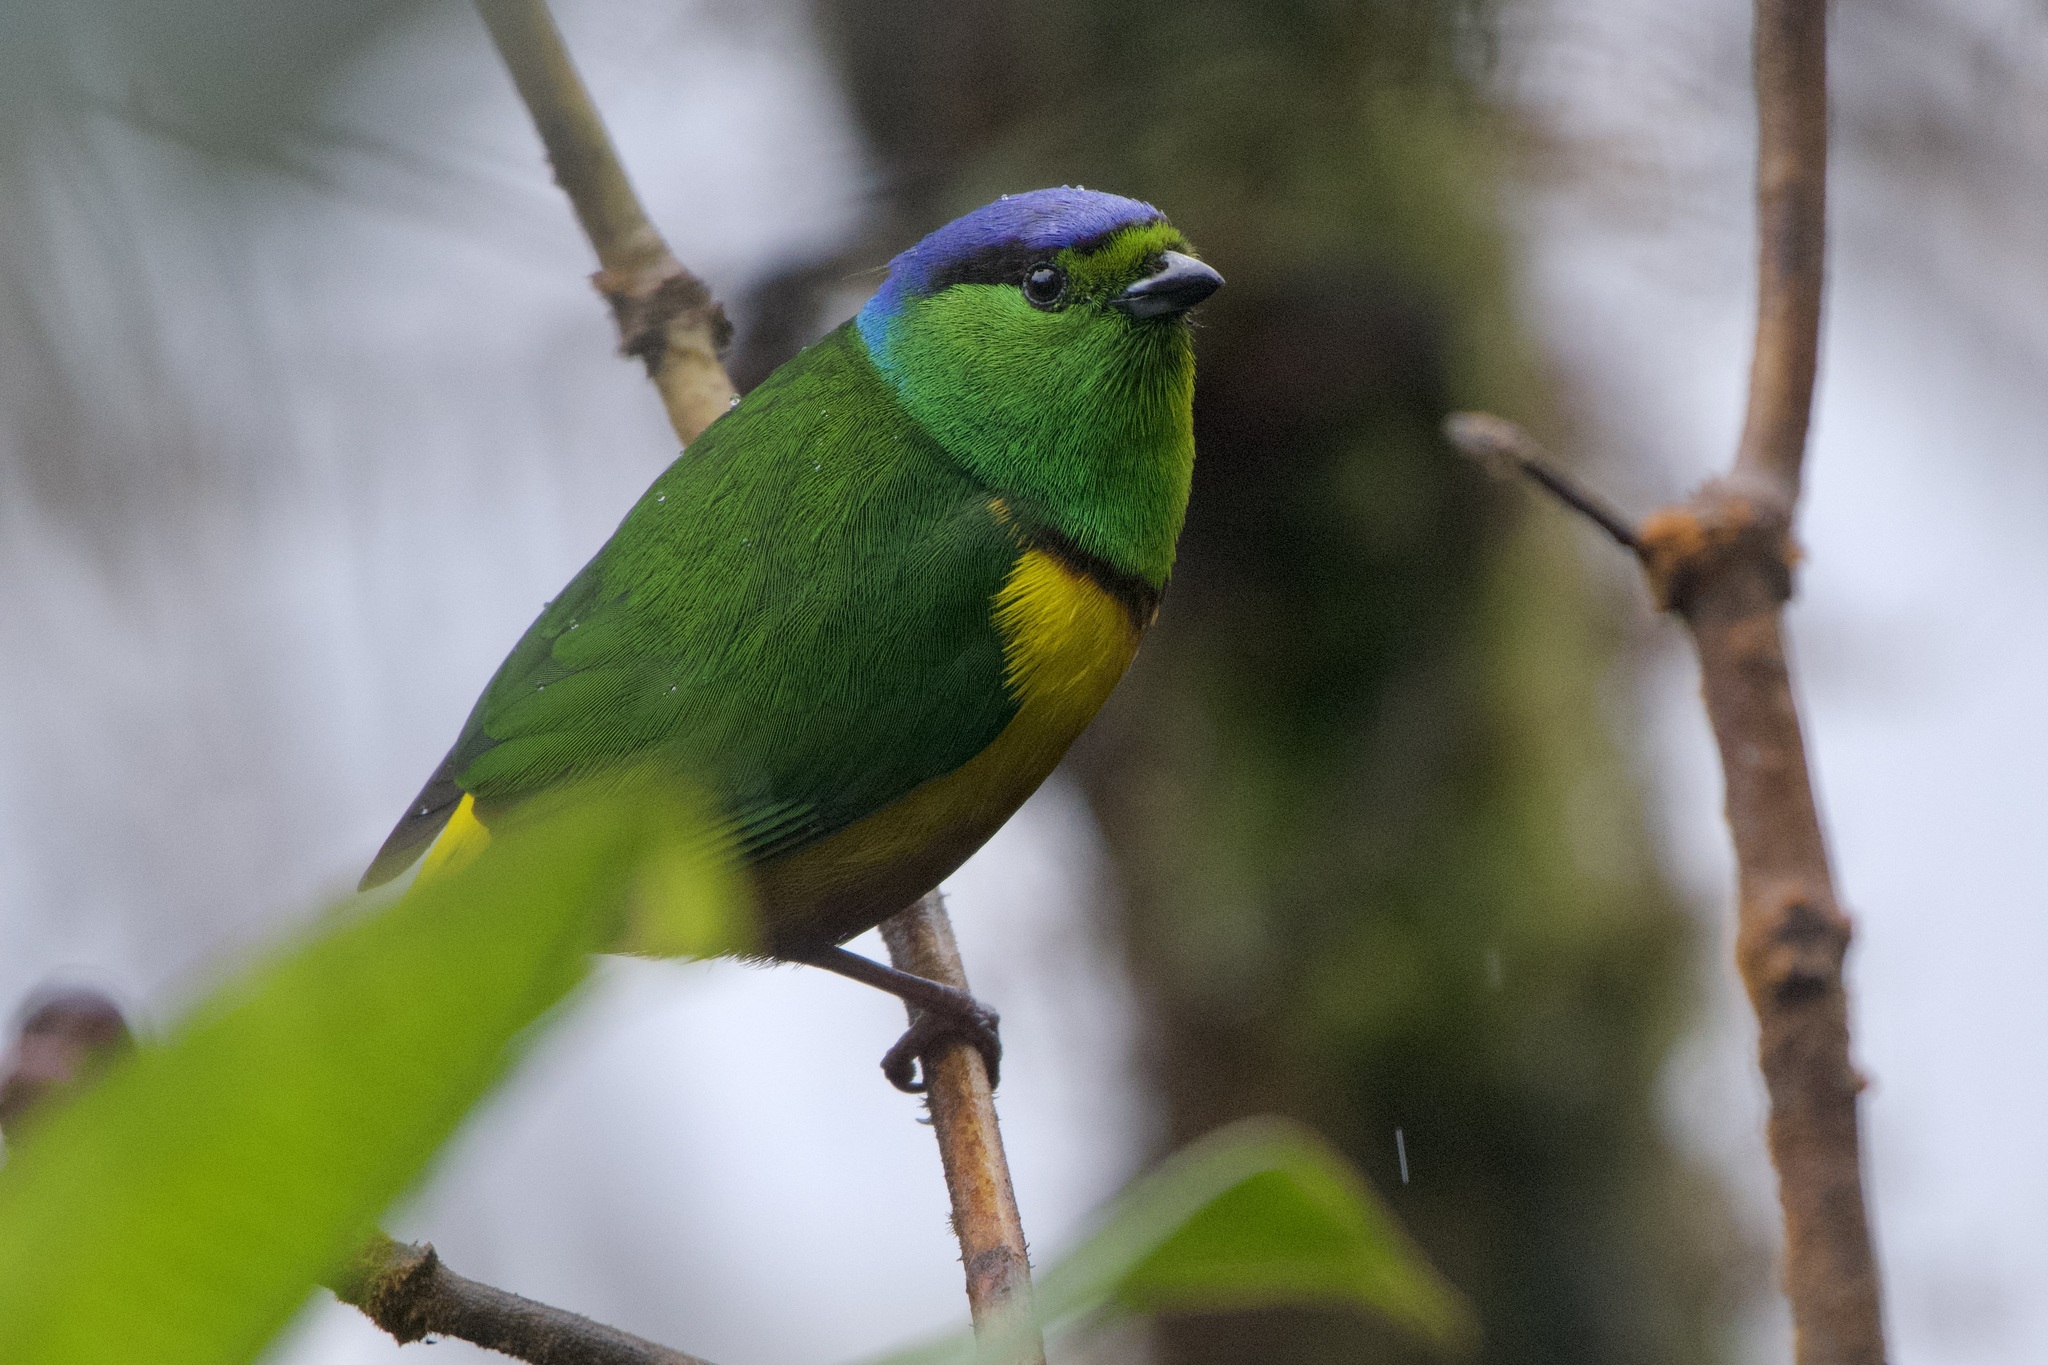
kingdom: Animalia
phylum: Chordata
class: Aves
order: Passeriformes
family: Fringillidae
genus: Chlorophonia
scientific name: Chlorophonia pyrrhophrys
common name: Chestnut-breasted chlorophonia
